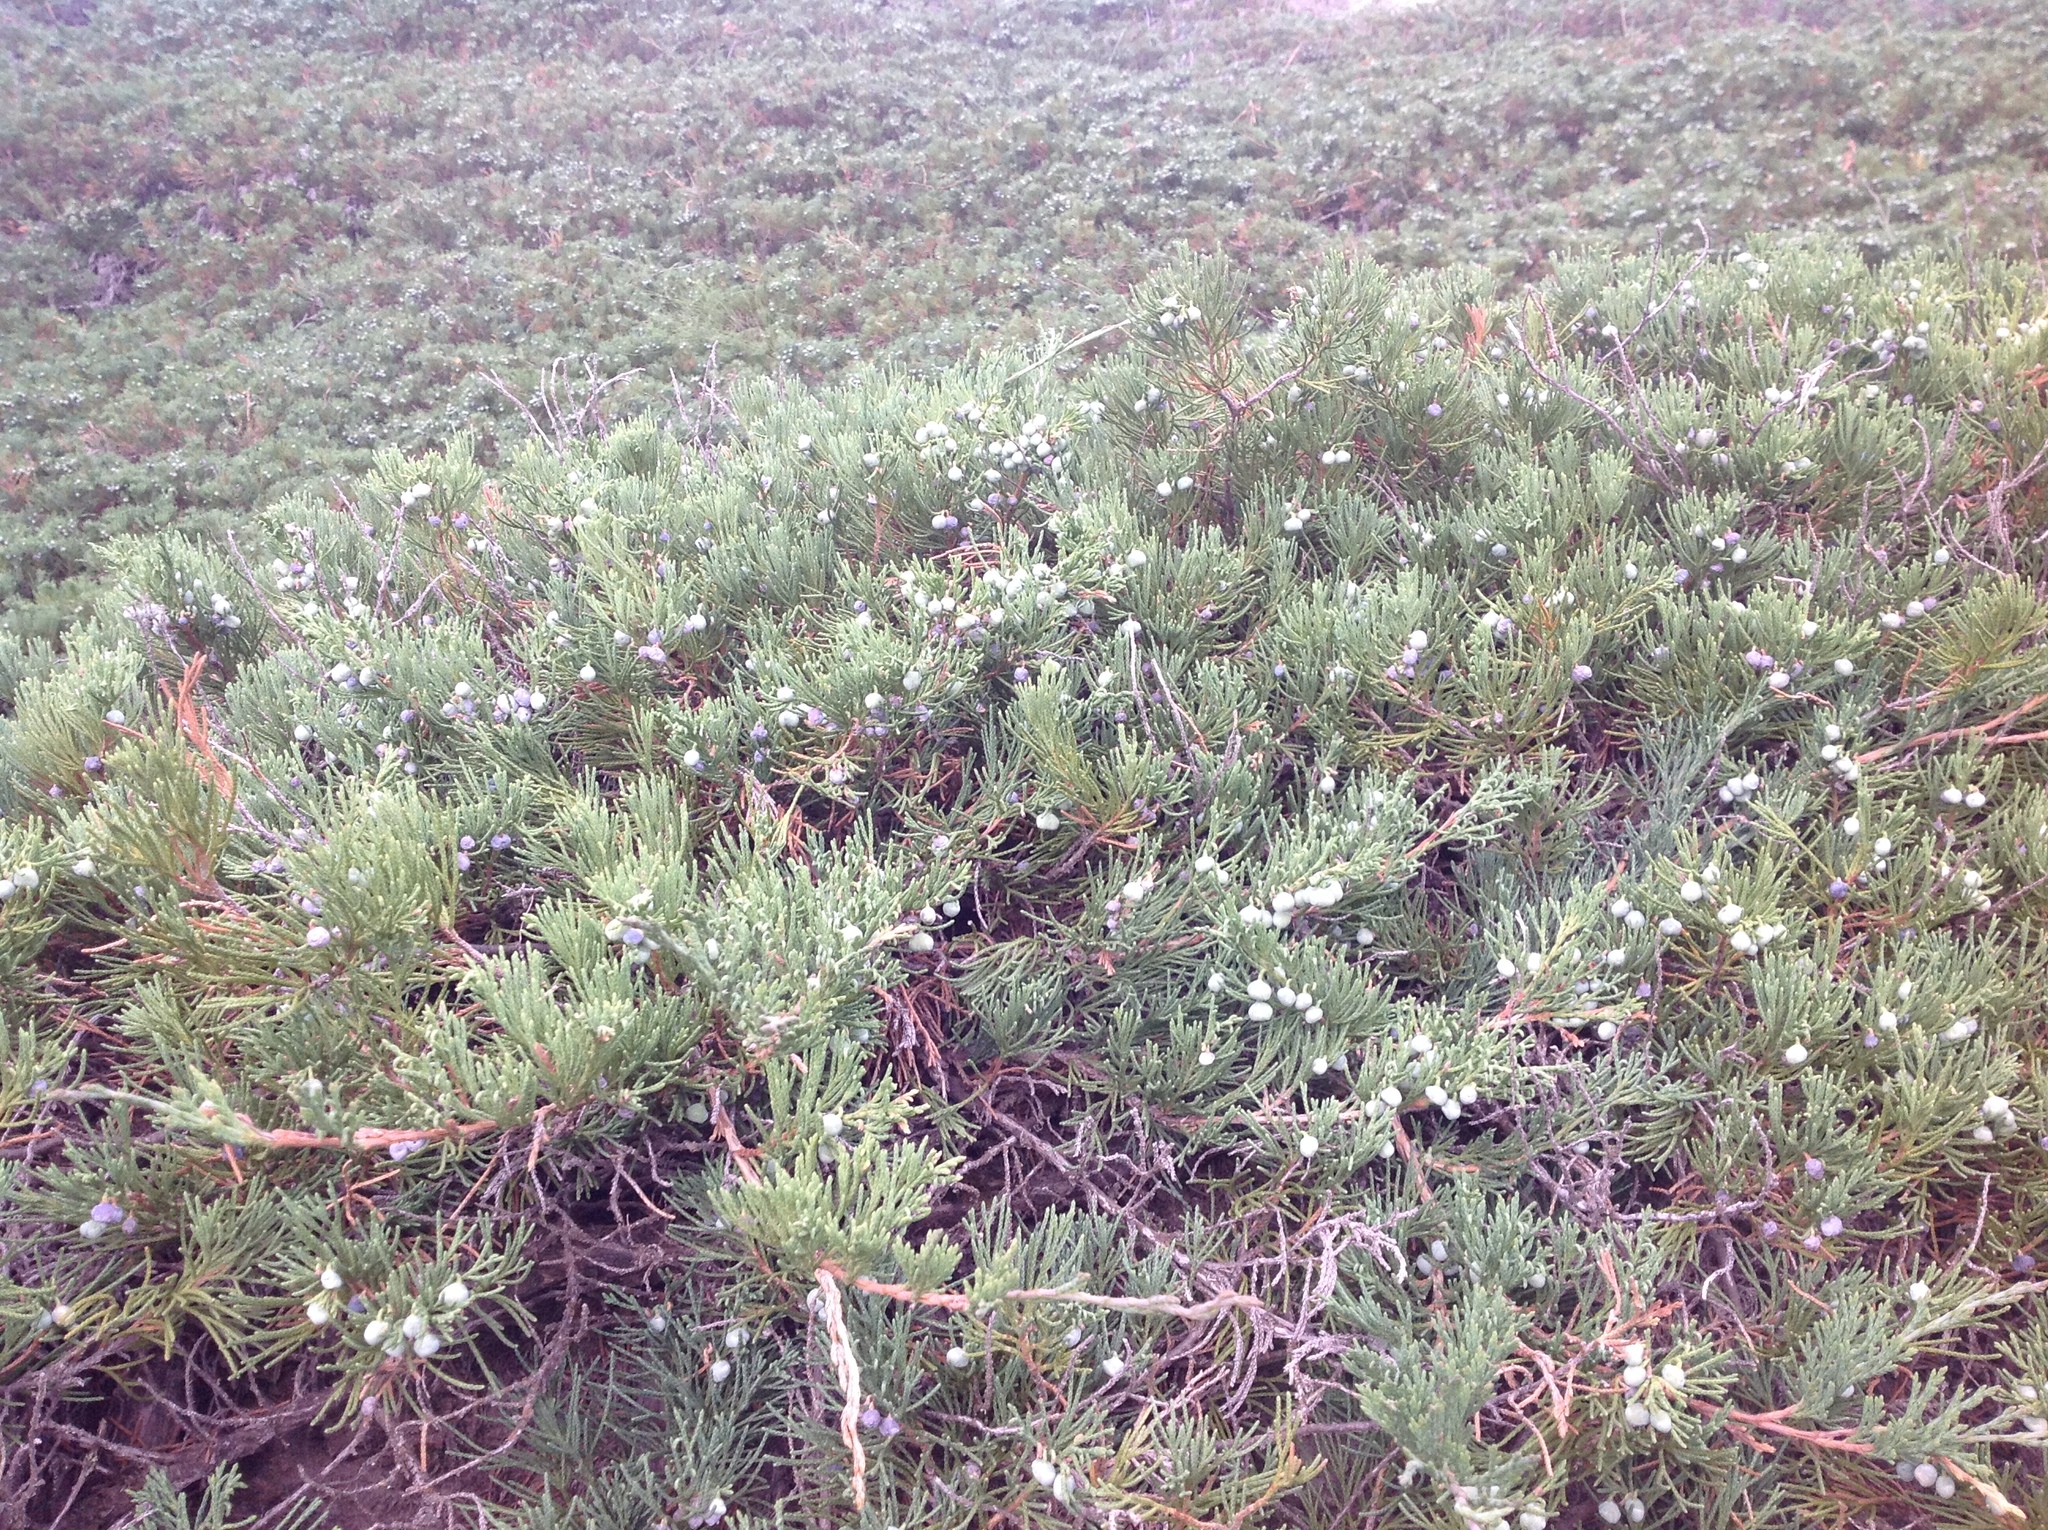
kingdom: Plantae
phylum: Tracheophyta
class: Pinopsida
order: Pinales
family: Cupressaceae
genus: Juniperus
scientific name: Juniperus horizontalis
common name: Creeping juniper
